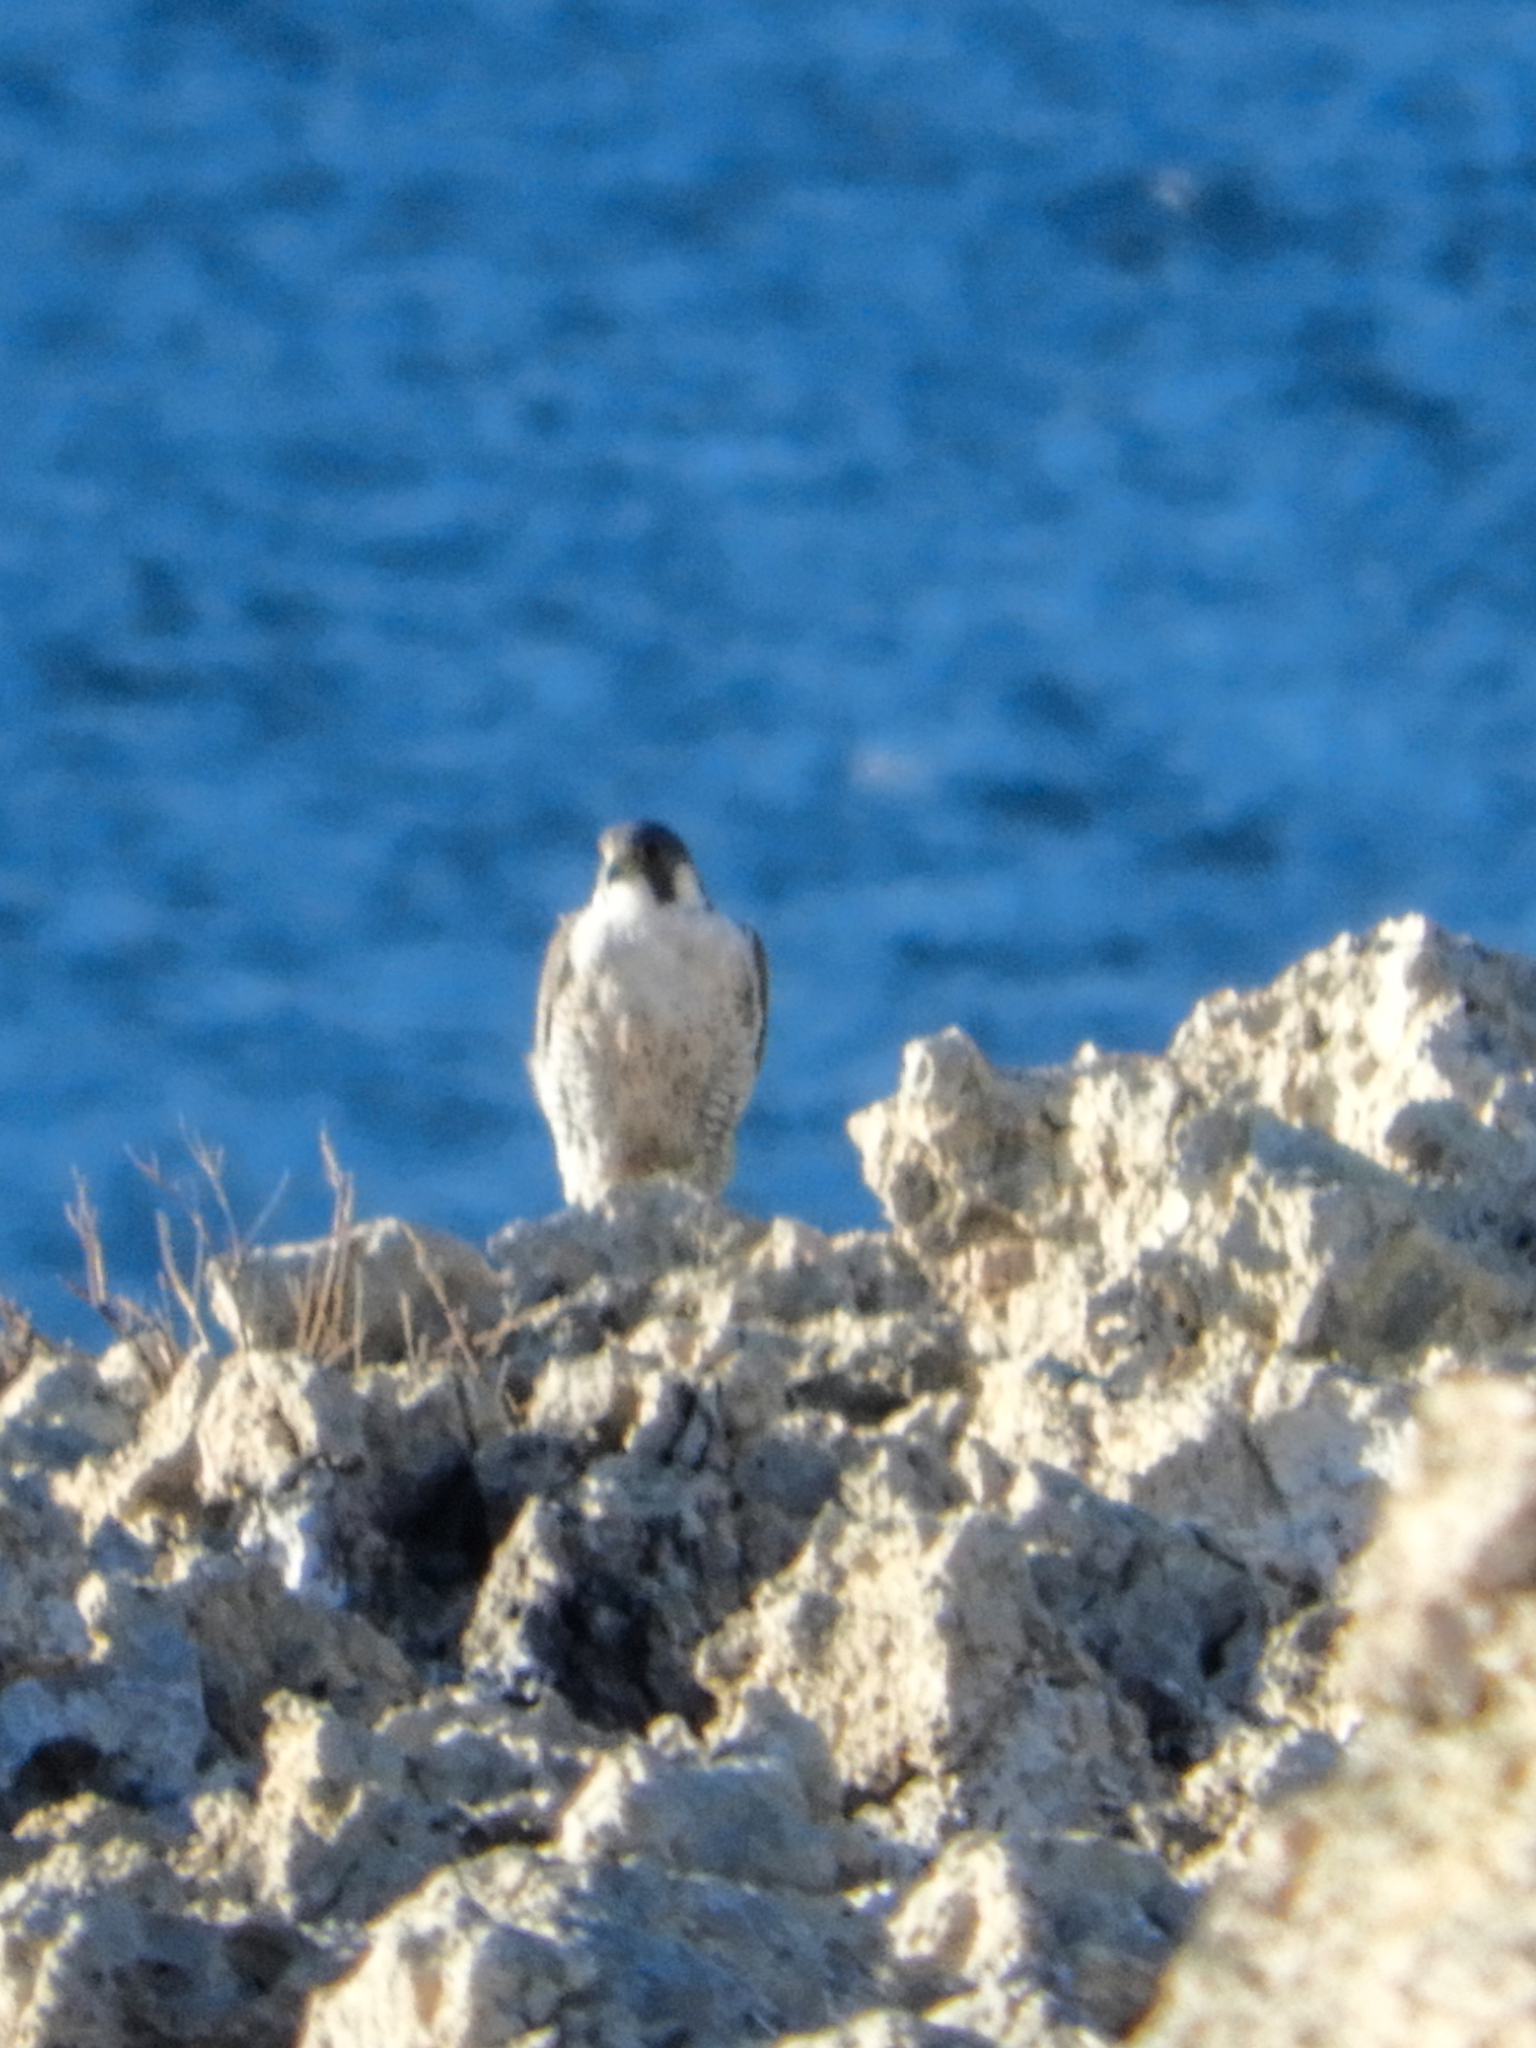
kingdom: Animalia
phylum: Chordata
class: Aves
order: Falconiformes
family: Falconidae
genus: Falco
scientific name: Falco peregrinus
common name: Peregrine falcon
